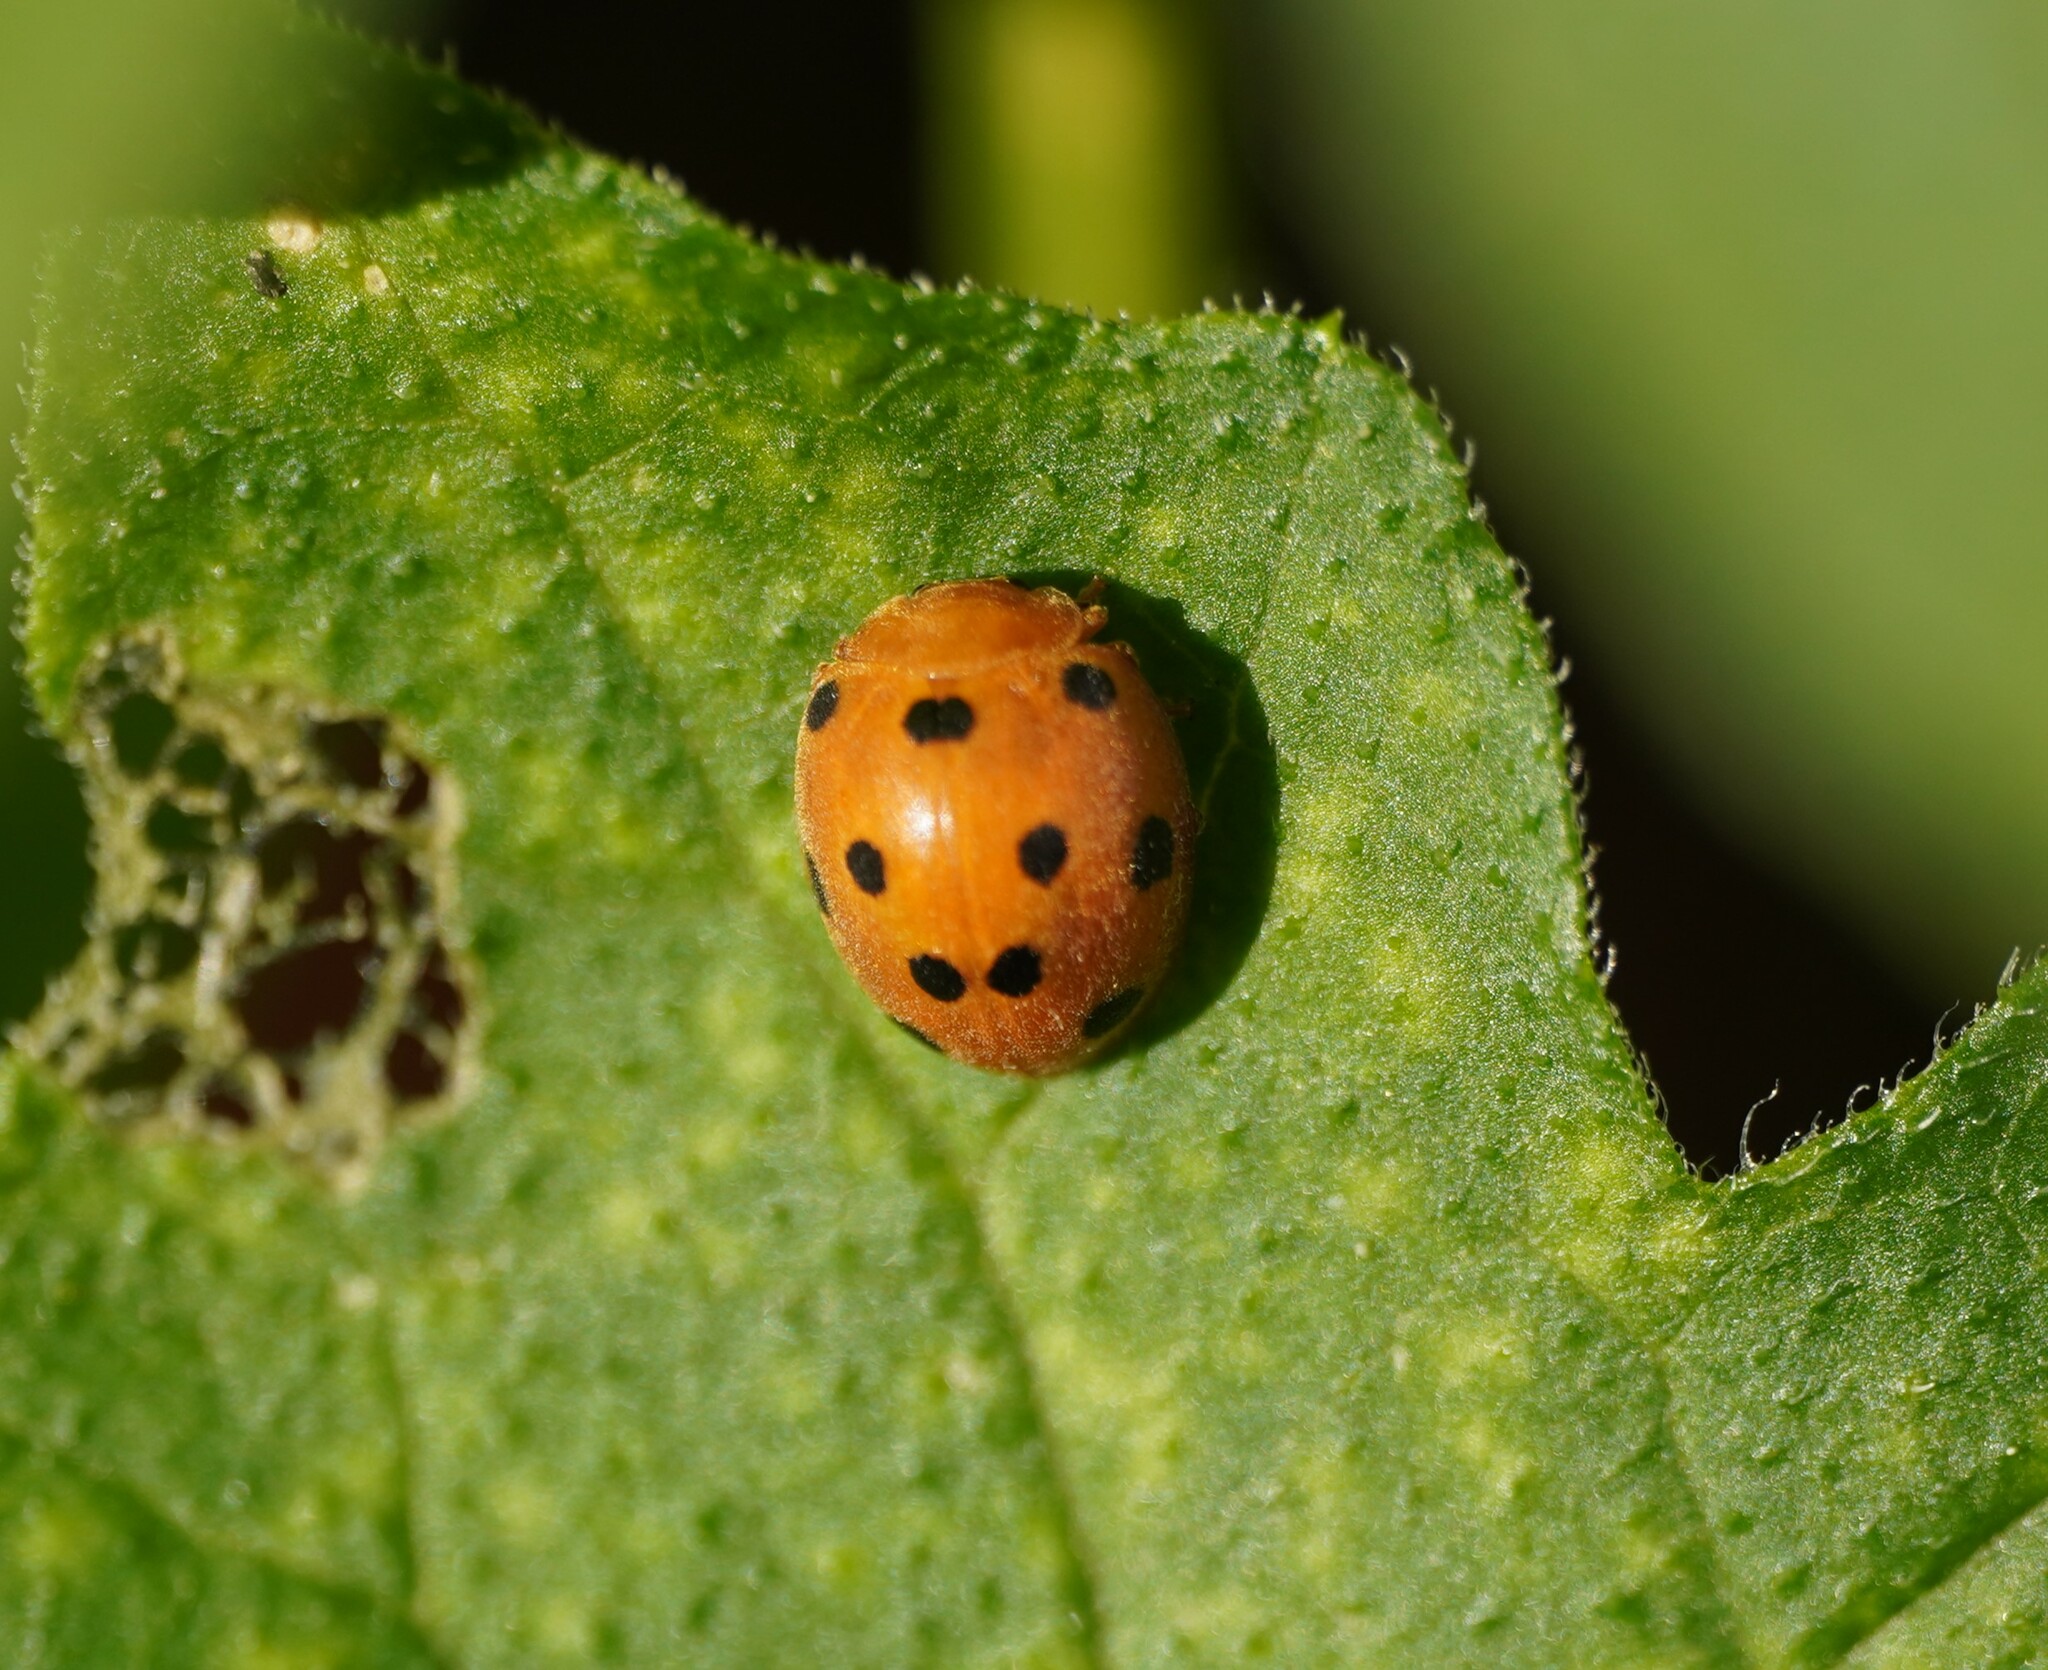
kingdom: Animalia
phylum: Arthropoda
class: Insecta
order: Coleoptera
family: Coccinellidae
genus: Henosepilachna
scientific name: Henosepilachna argus
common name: Bryony ladybird
